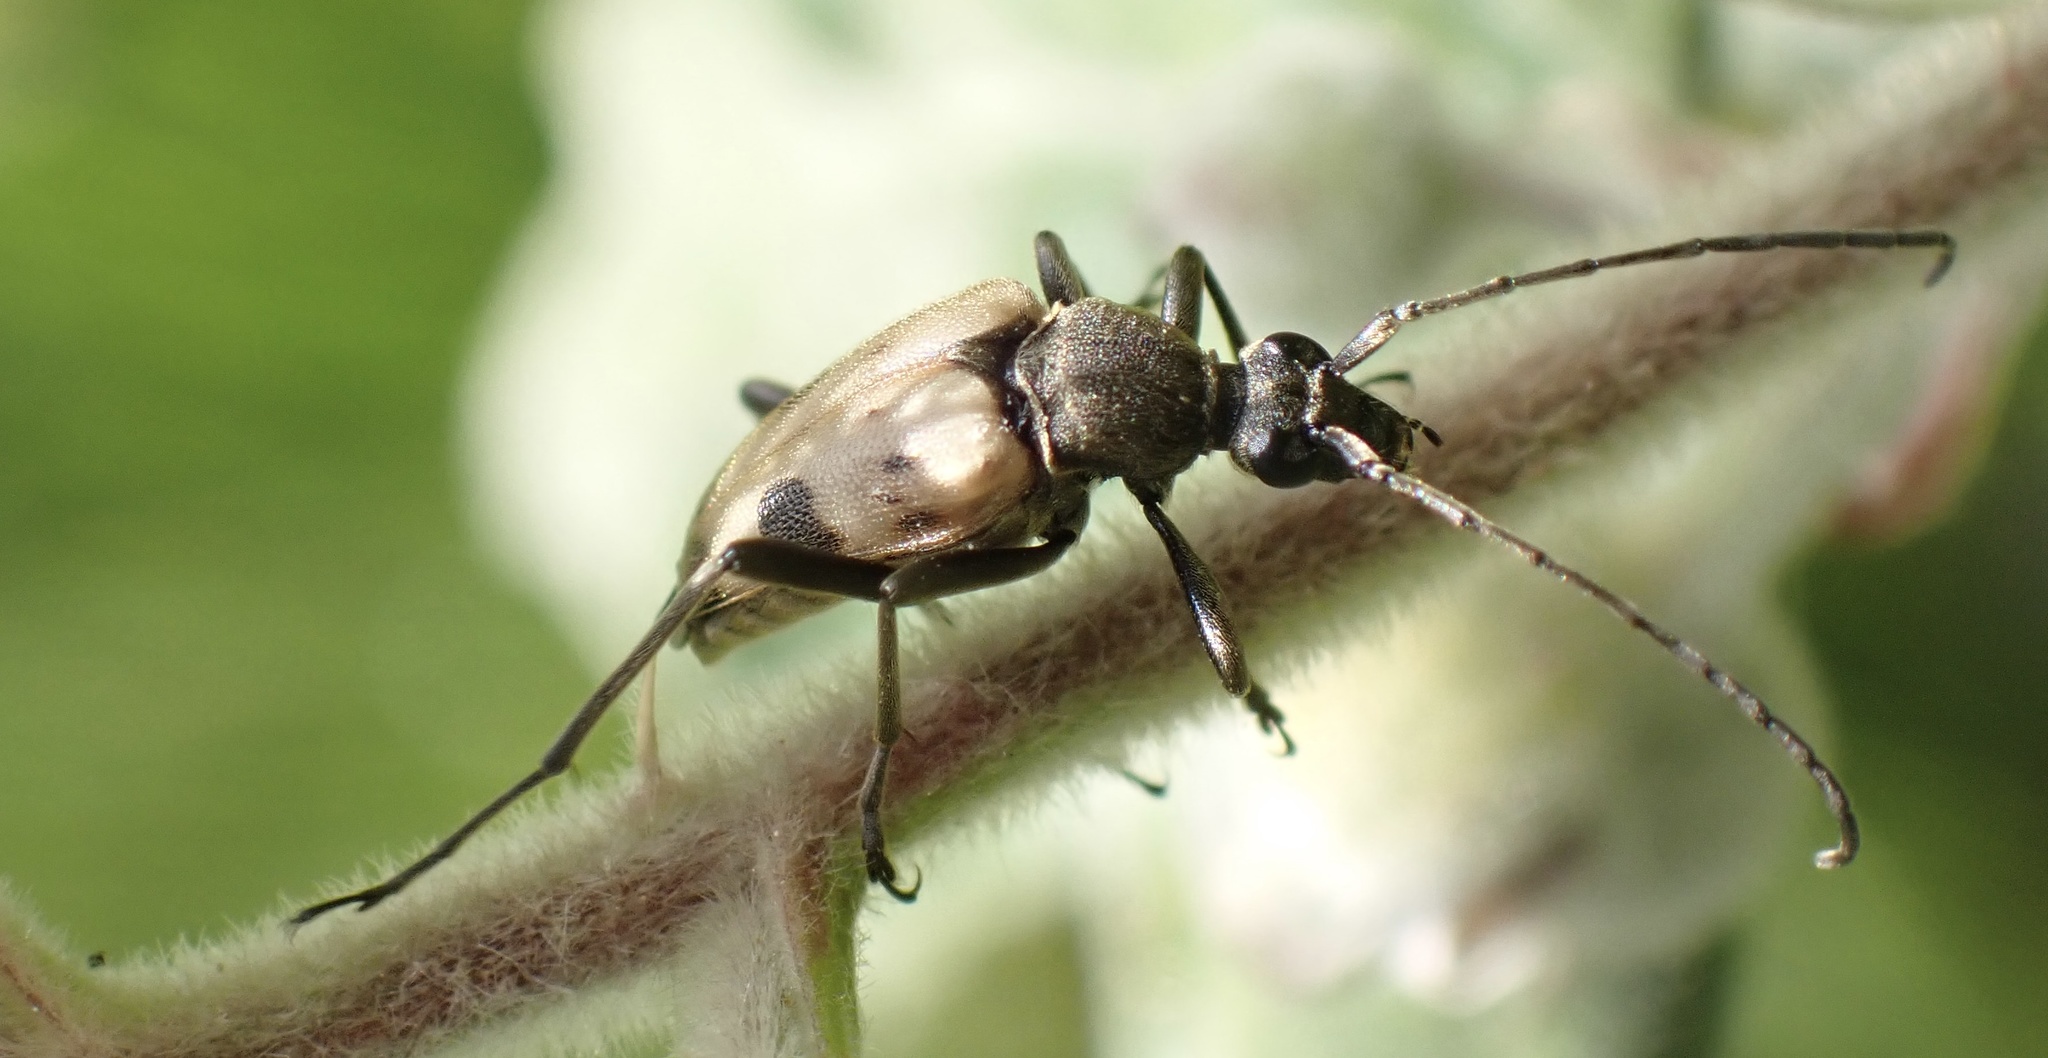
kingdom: Animalia
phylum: Arthropoda
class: Insecta
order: Coleoptera
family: Cerambycidae
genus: Pachytodes
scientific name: Pachytodes cerambyciformis
